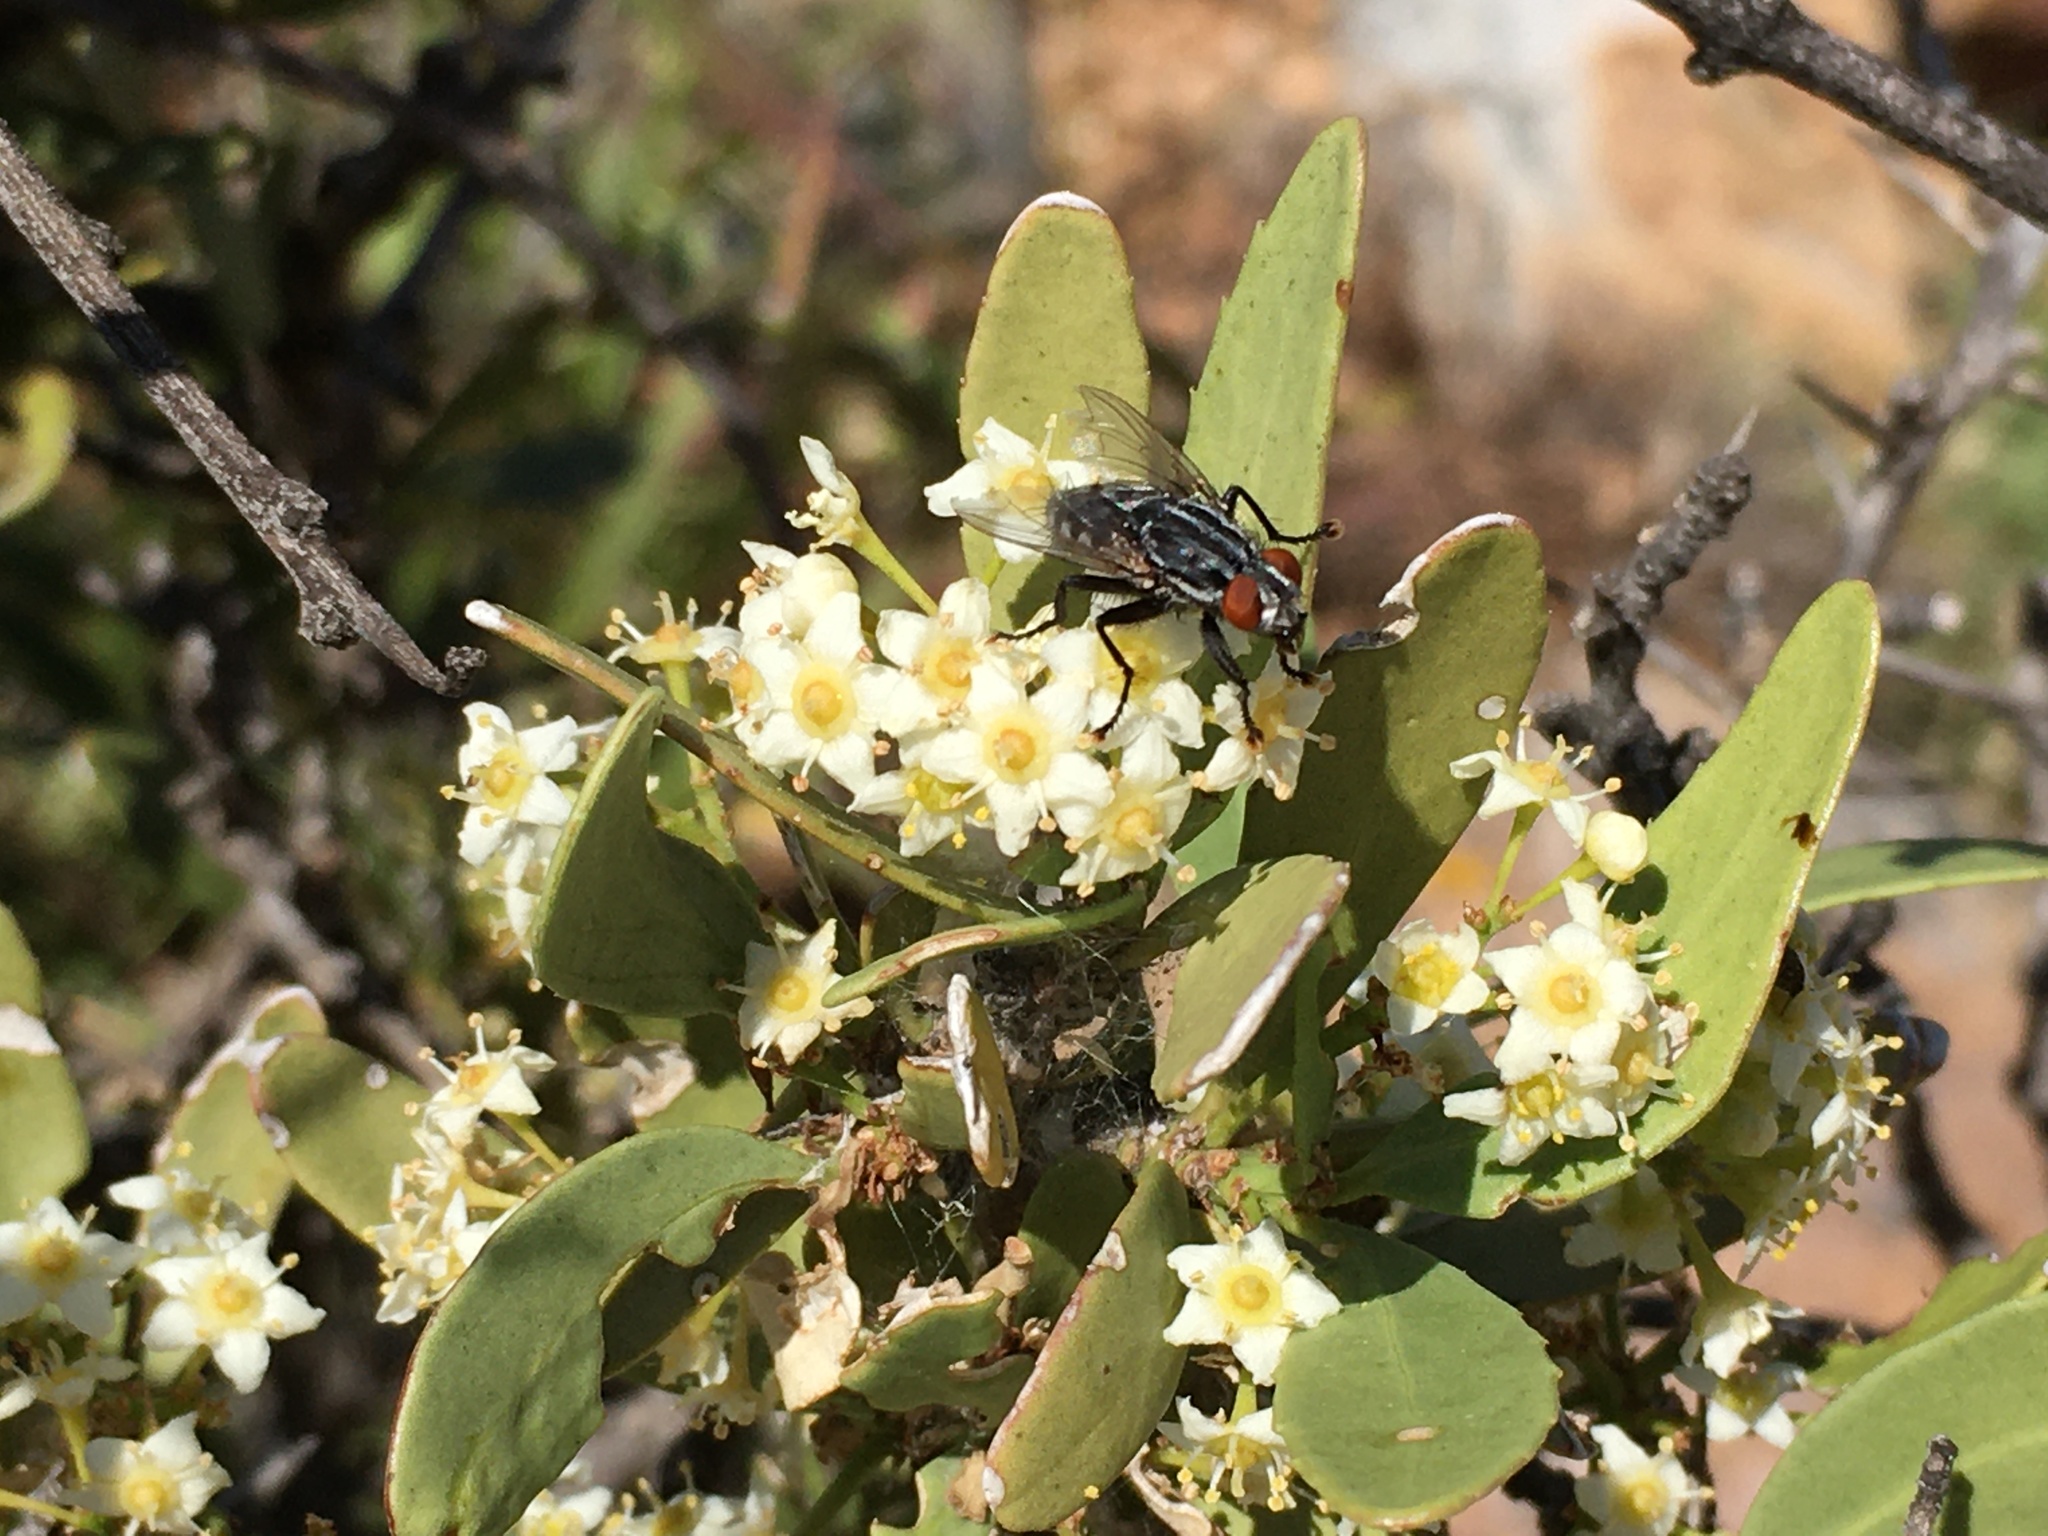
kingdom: Plantae
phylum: Tracheophyta
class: Magnoliopsida
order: Celastrales
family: Celastraceae
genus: Gymnosporia
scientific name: Gymnosporia buxifolia
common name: Common spike-thorn
